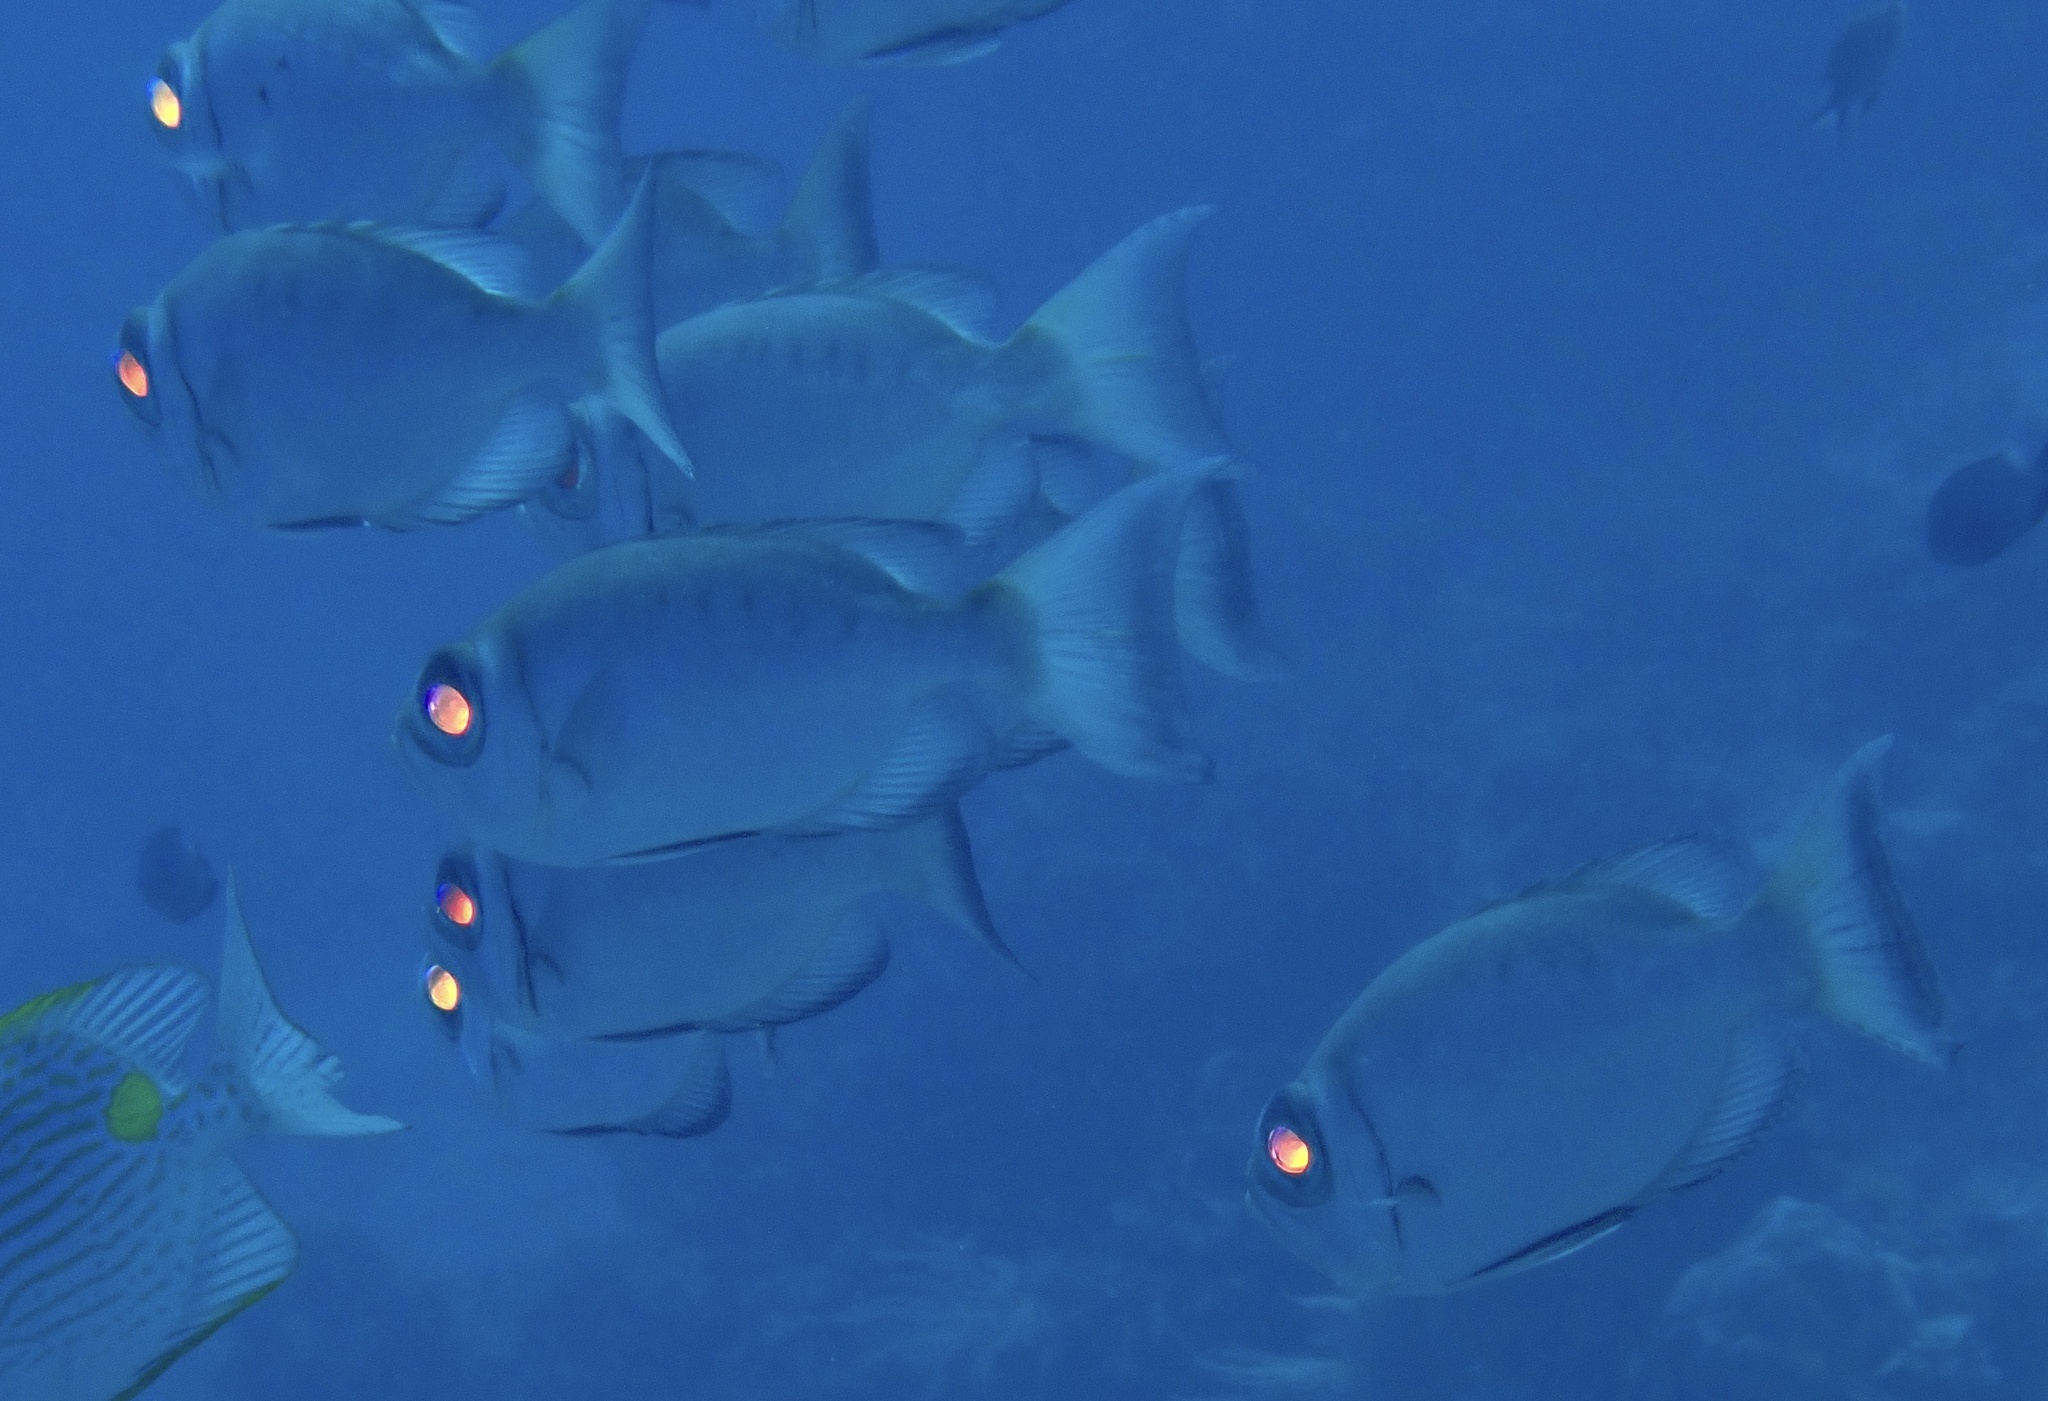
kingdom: Animalia
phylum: Chordata
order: Perciformes
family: Priacanthidae
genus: Priacanthus
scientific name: Priacanthus hamrur
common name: Moontail bullseye
